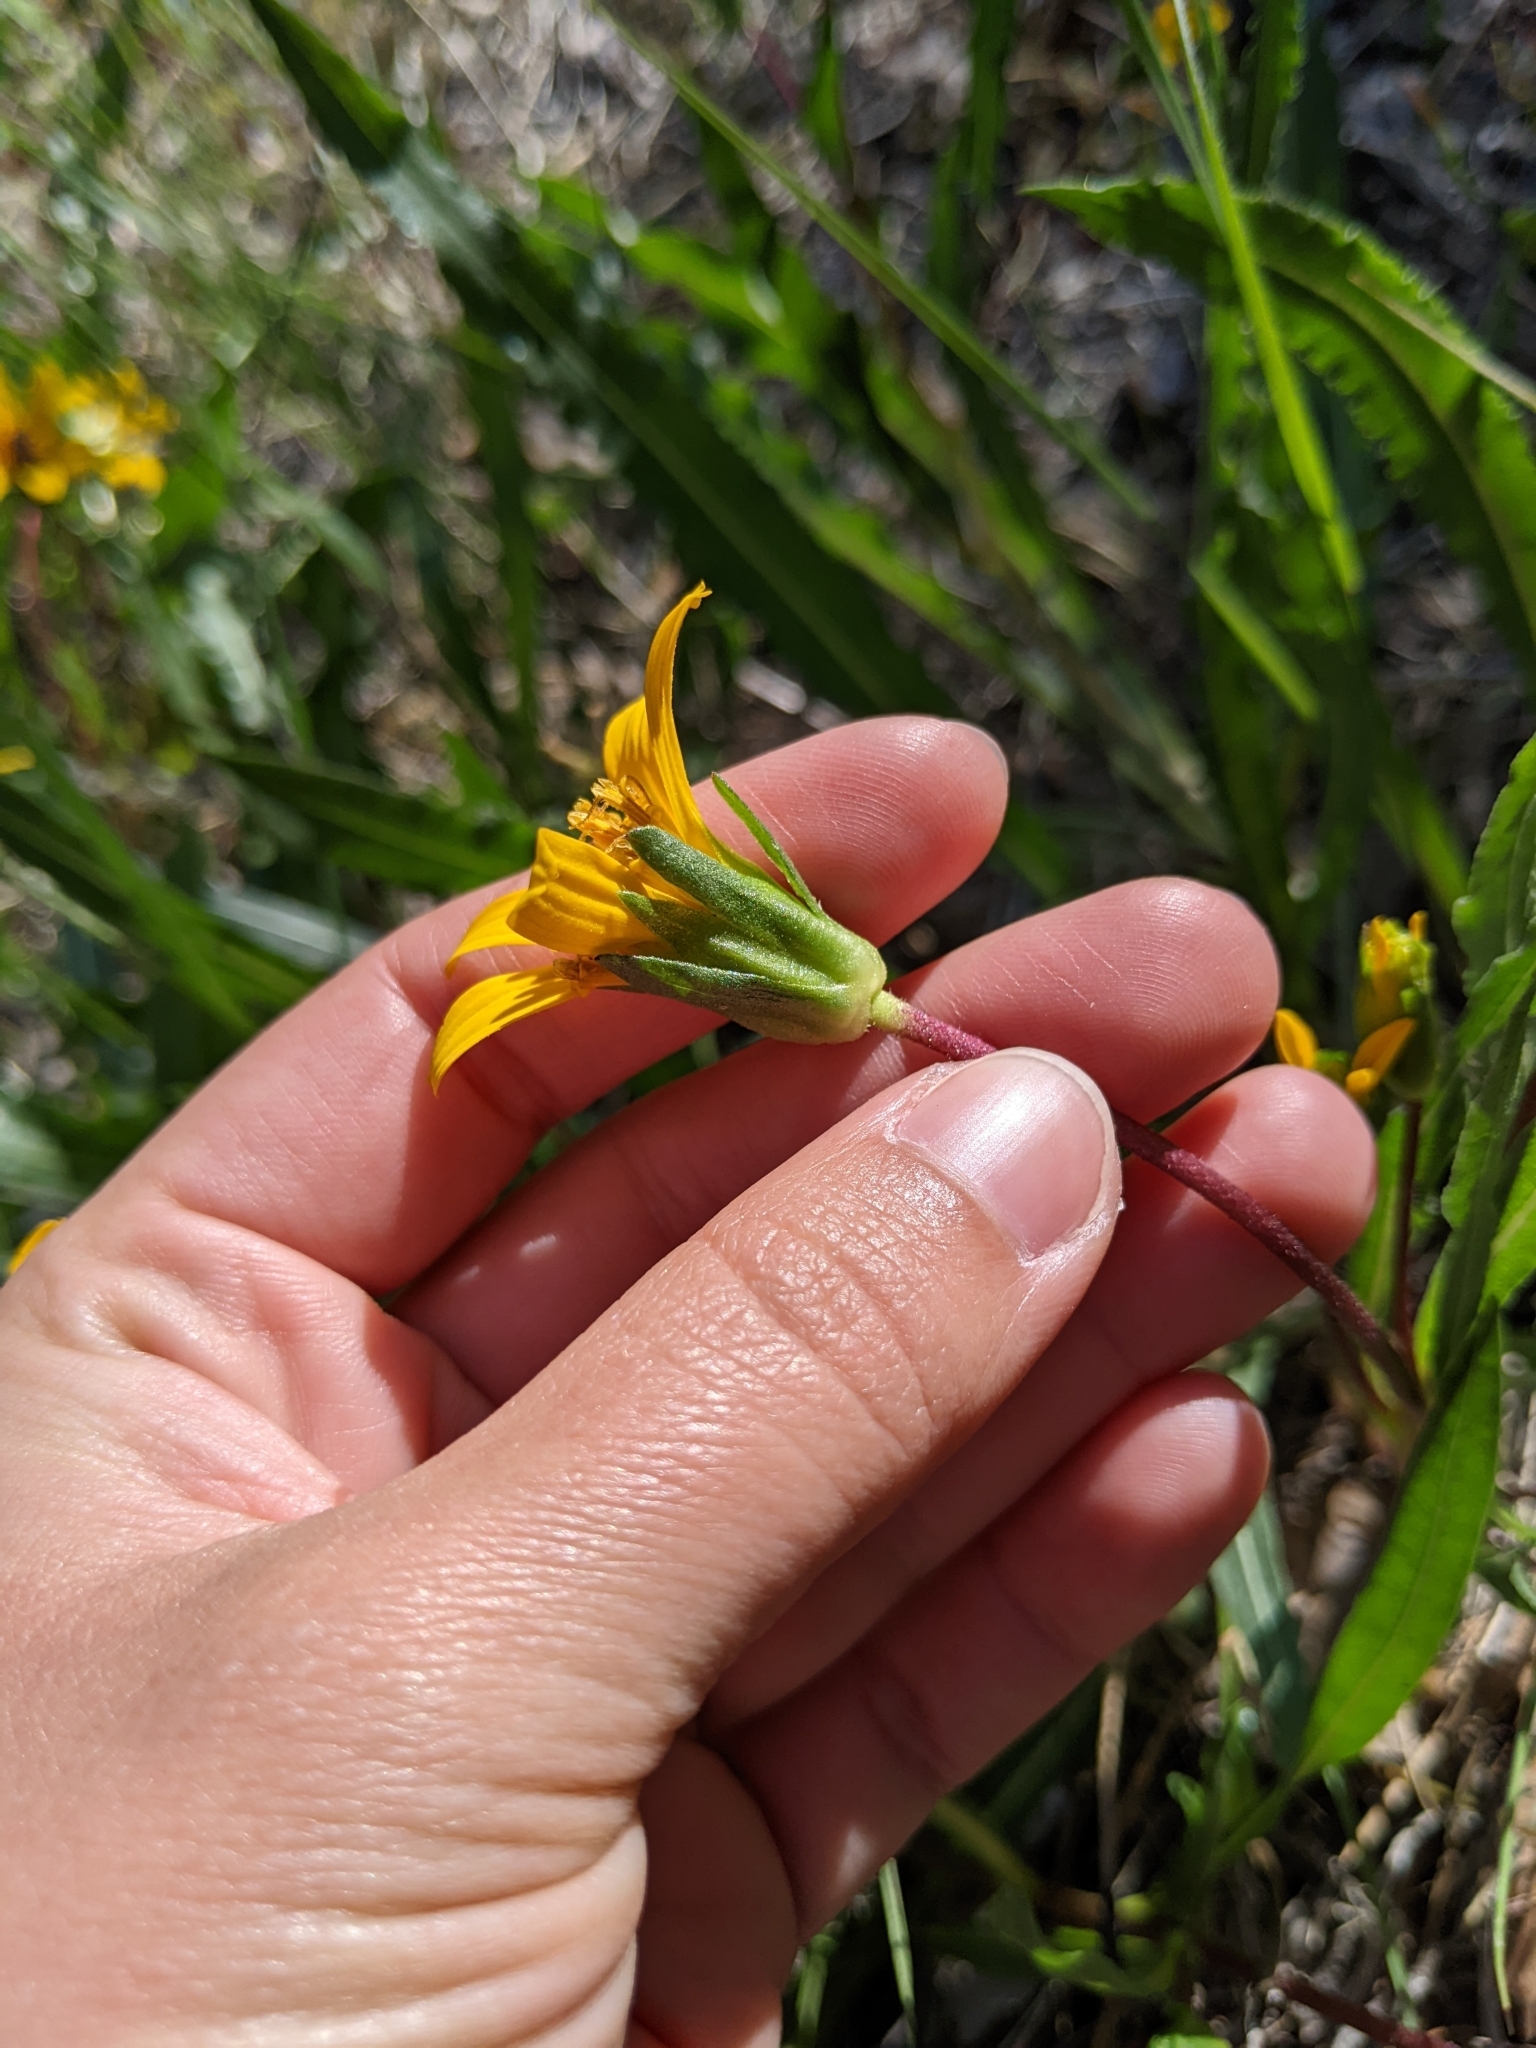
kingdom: Plantae
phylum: Tracheophyta
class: Magnoliopsida
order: Asterales
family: Asteraceae
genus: Helianthella
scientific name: Helianthella californica
